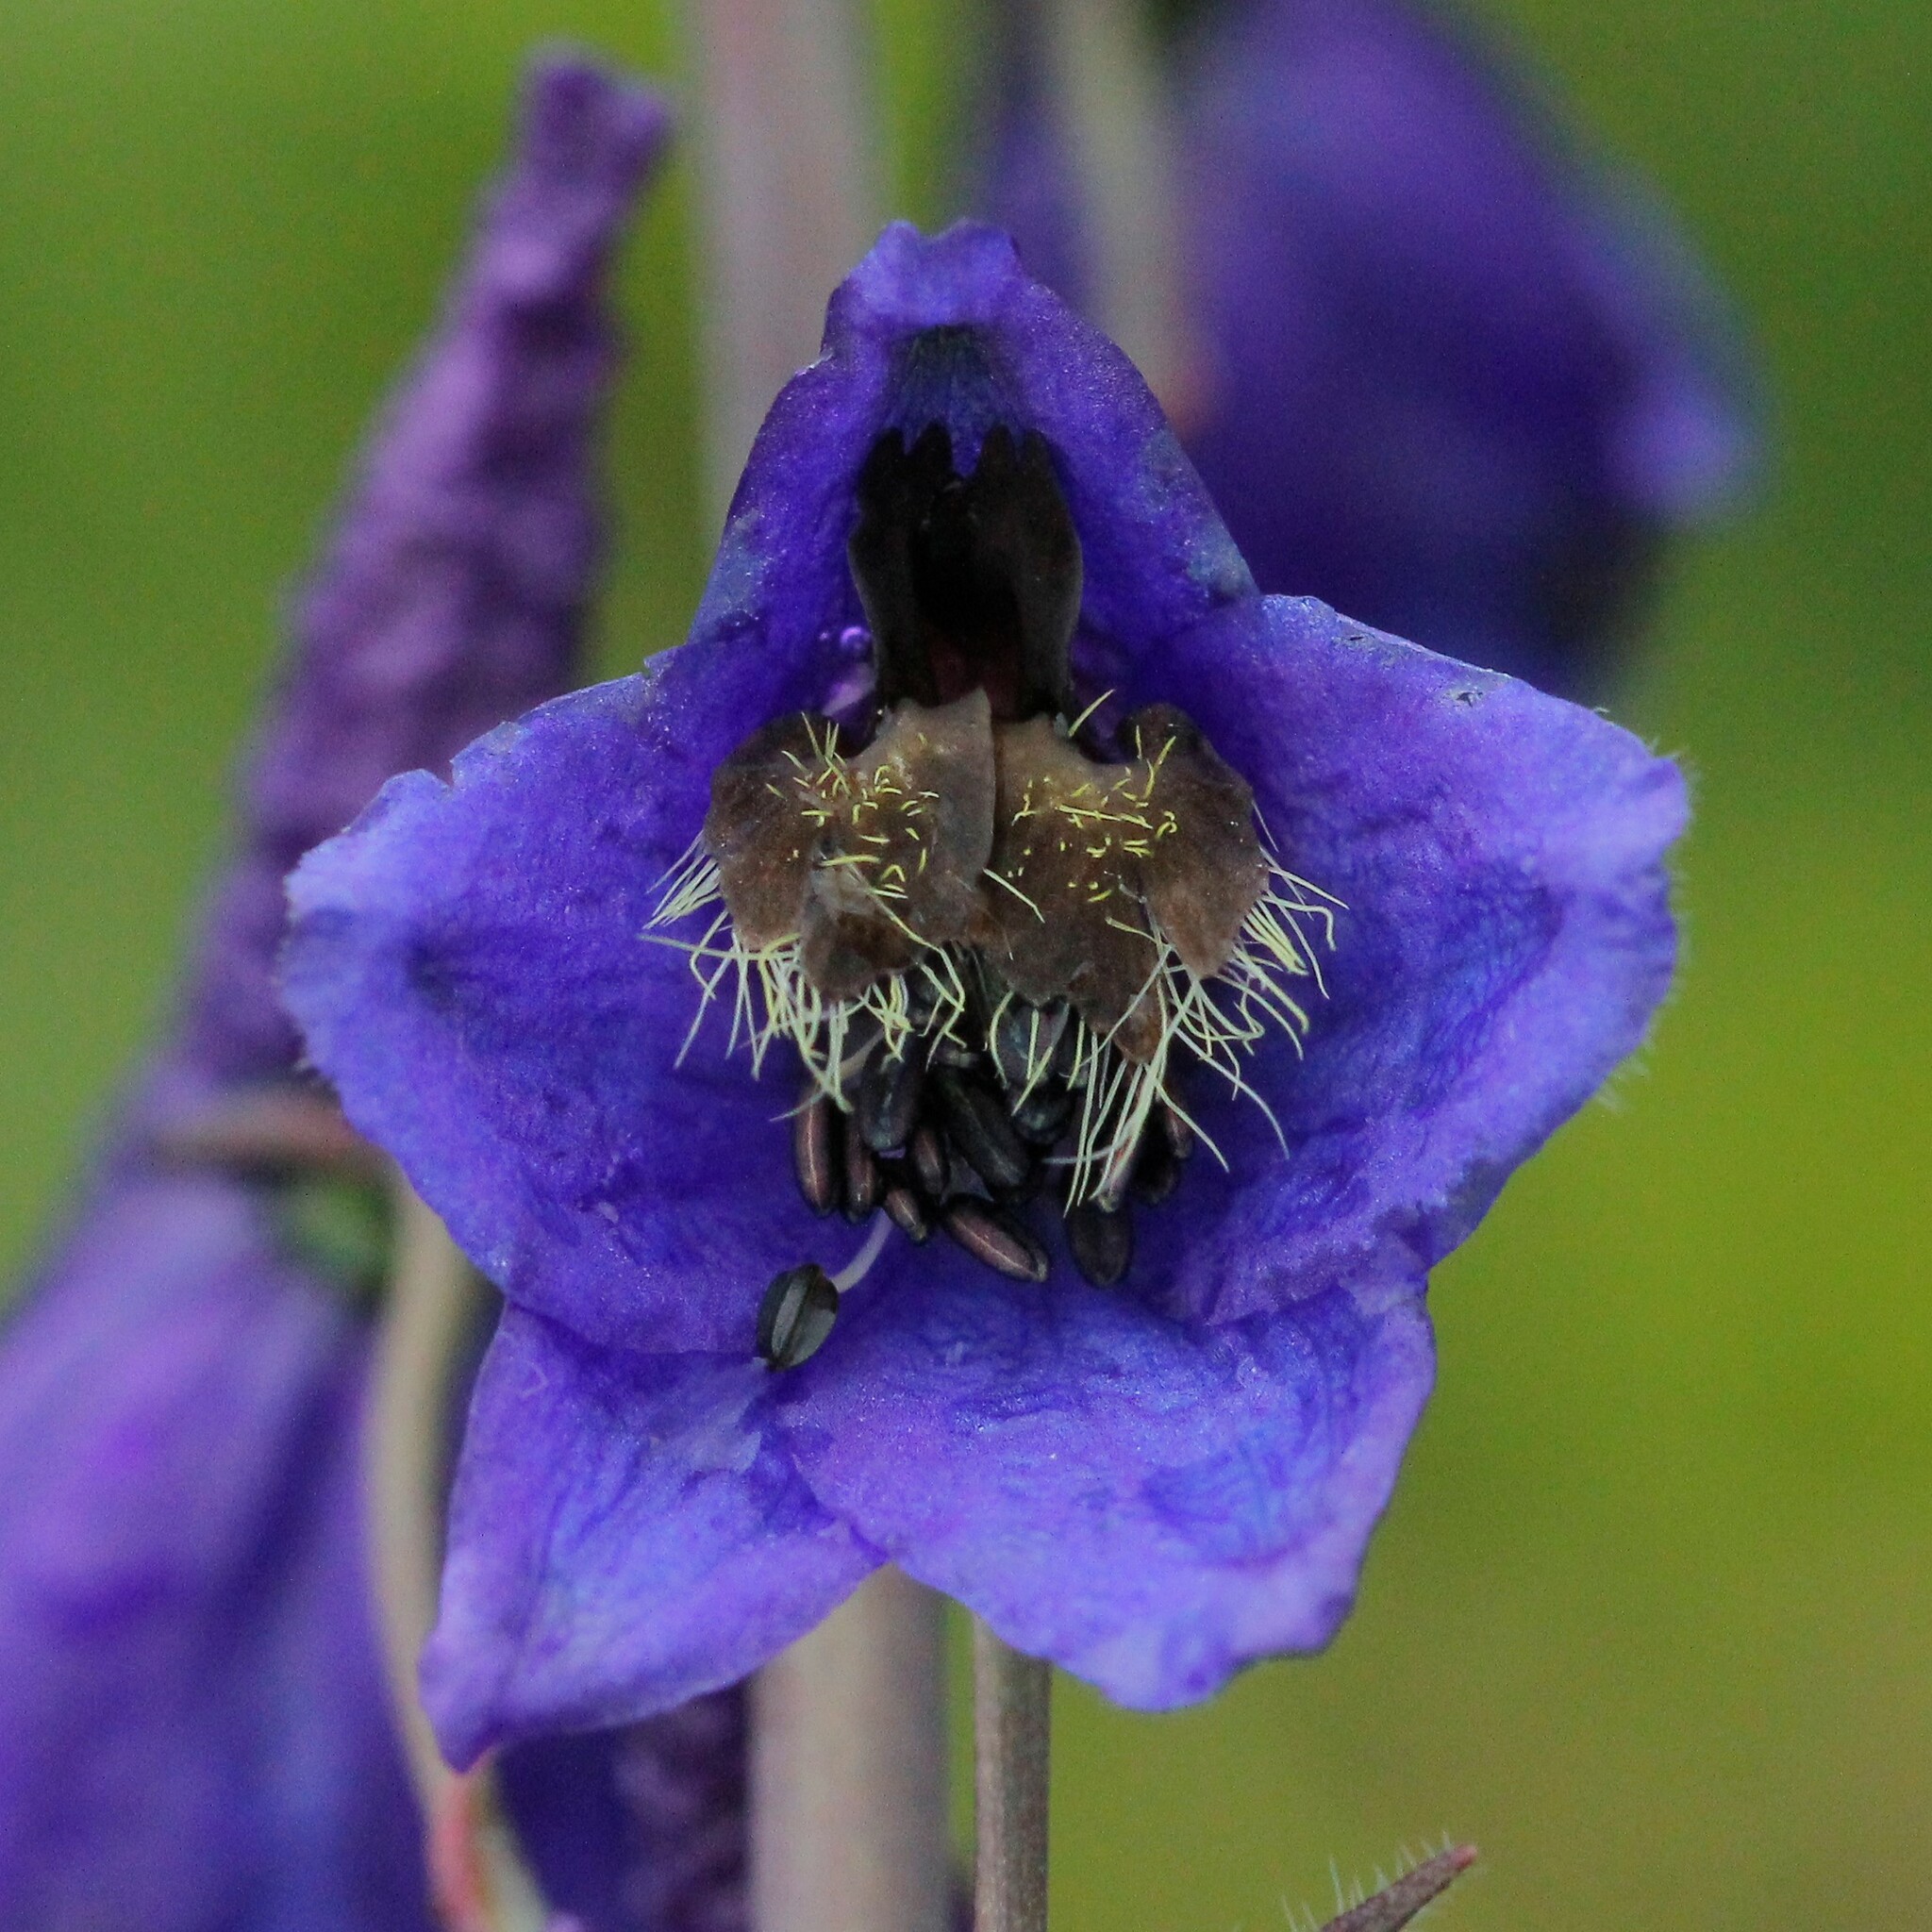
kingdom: Plantae
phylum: Tracheophyta
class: Magnoliopsida
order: Ranunculales
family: Ranunculaceae
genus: Delphinium
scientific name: Delphinium elatum
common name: Candle larkspur
